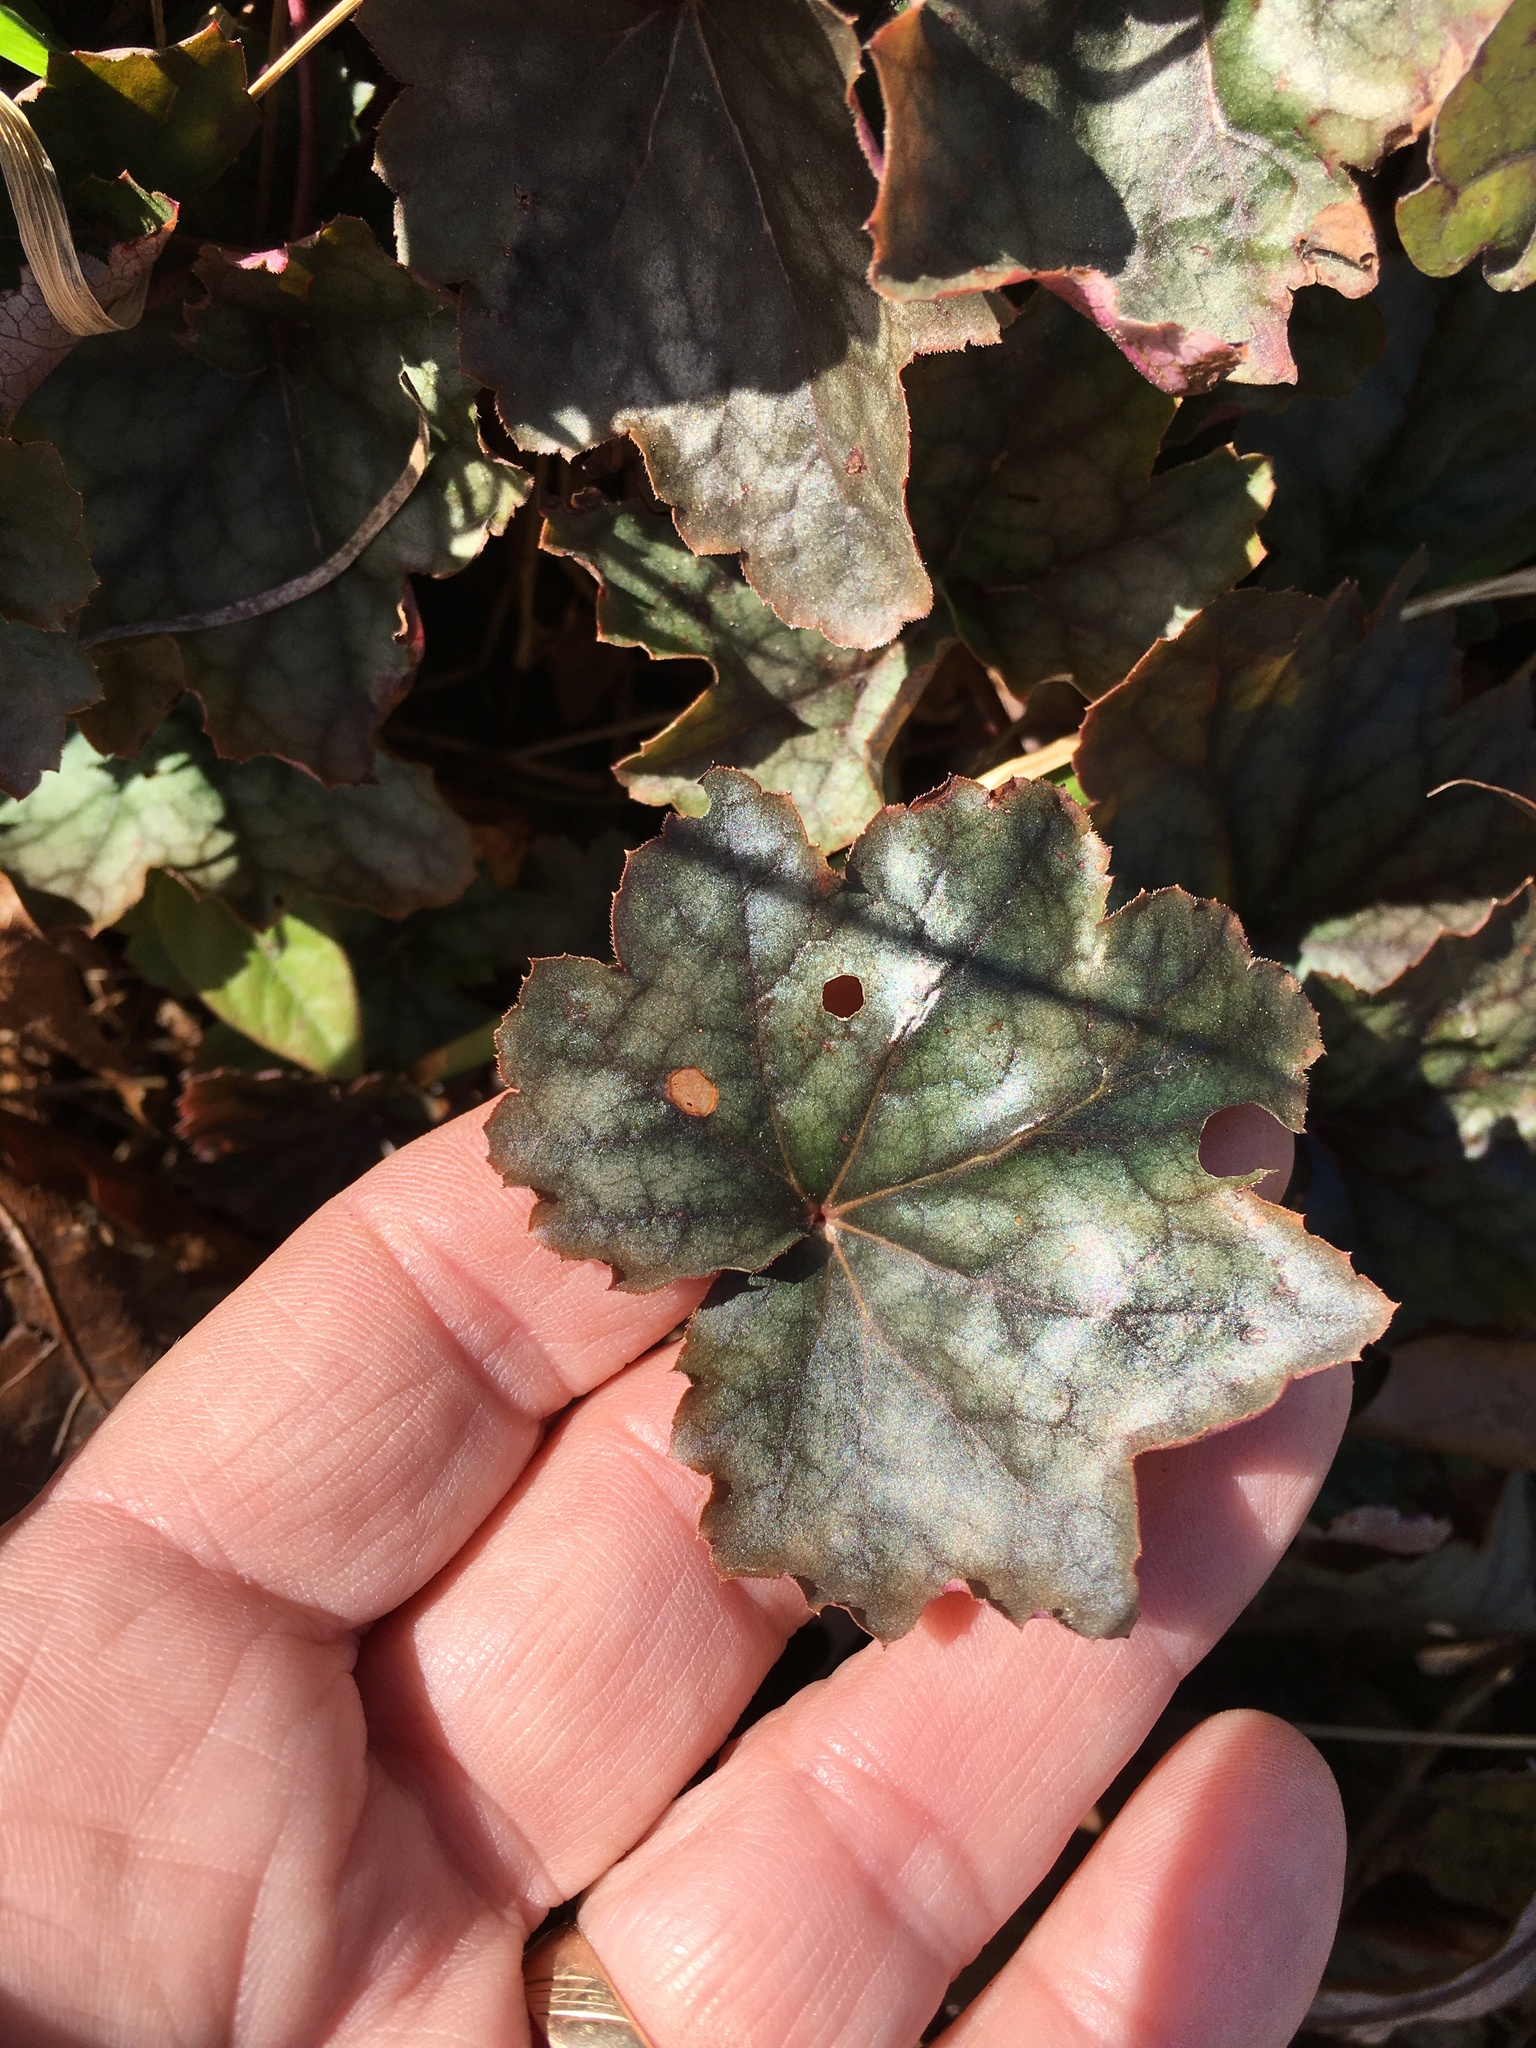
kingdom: Plantae
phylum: Tracheophyta
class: Magnoliopsida
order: Saxifragales
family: Saxifragaceae
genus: Heuchera
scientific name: Heuchera caroliniana
